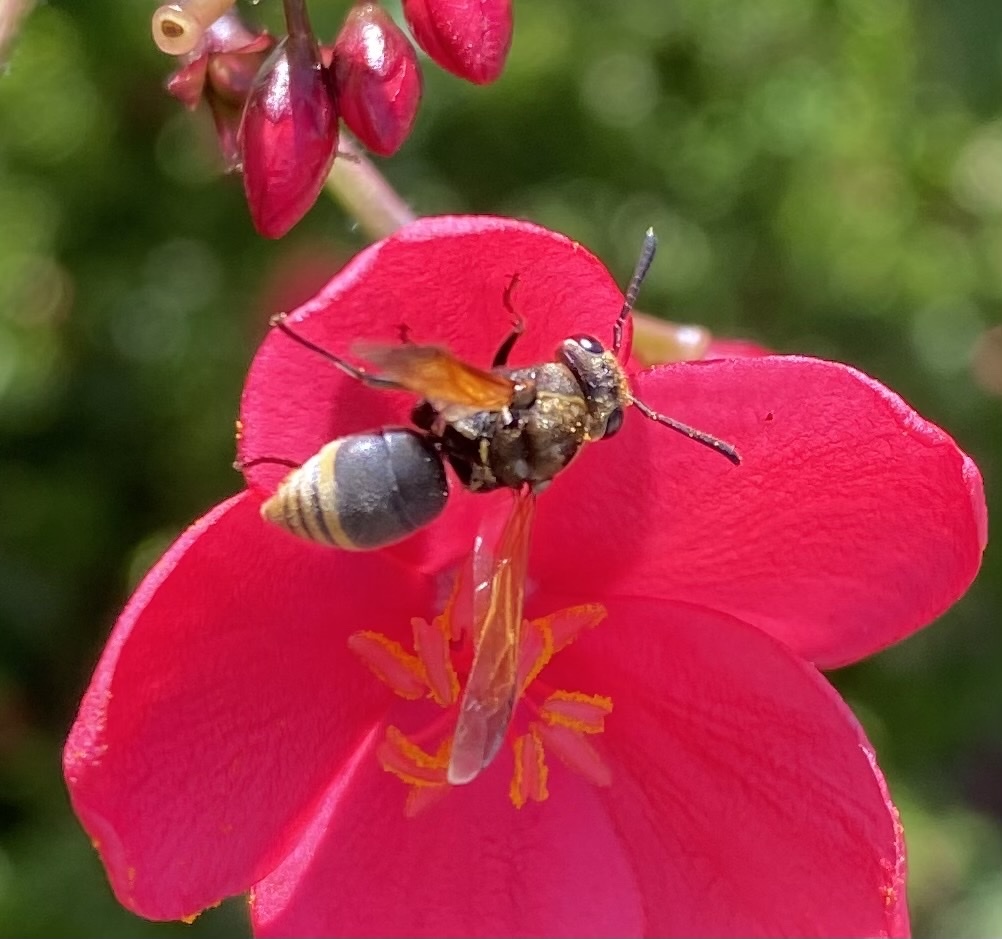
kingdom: Animalia
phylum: Arthropoda
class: Insecta
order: Hymenoptera
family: Eumenidae
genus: Pachodynerus
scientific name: Pachodynerus nasidens
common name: Key hole wasp
